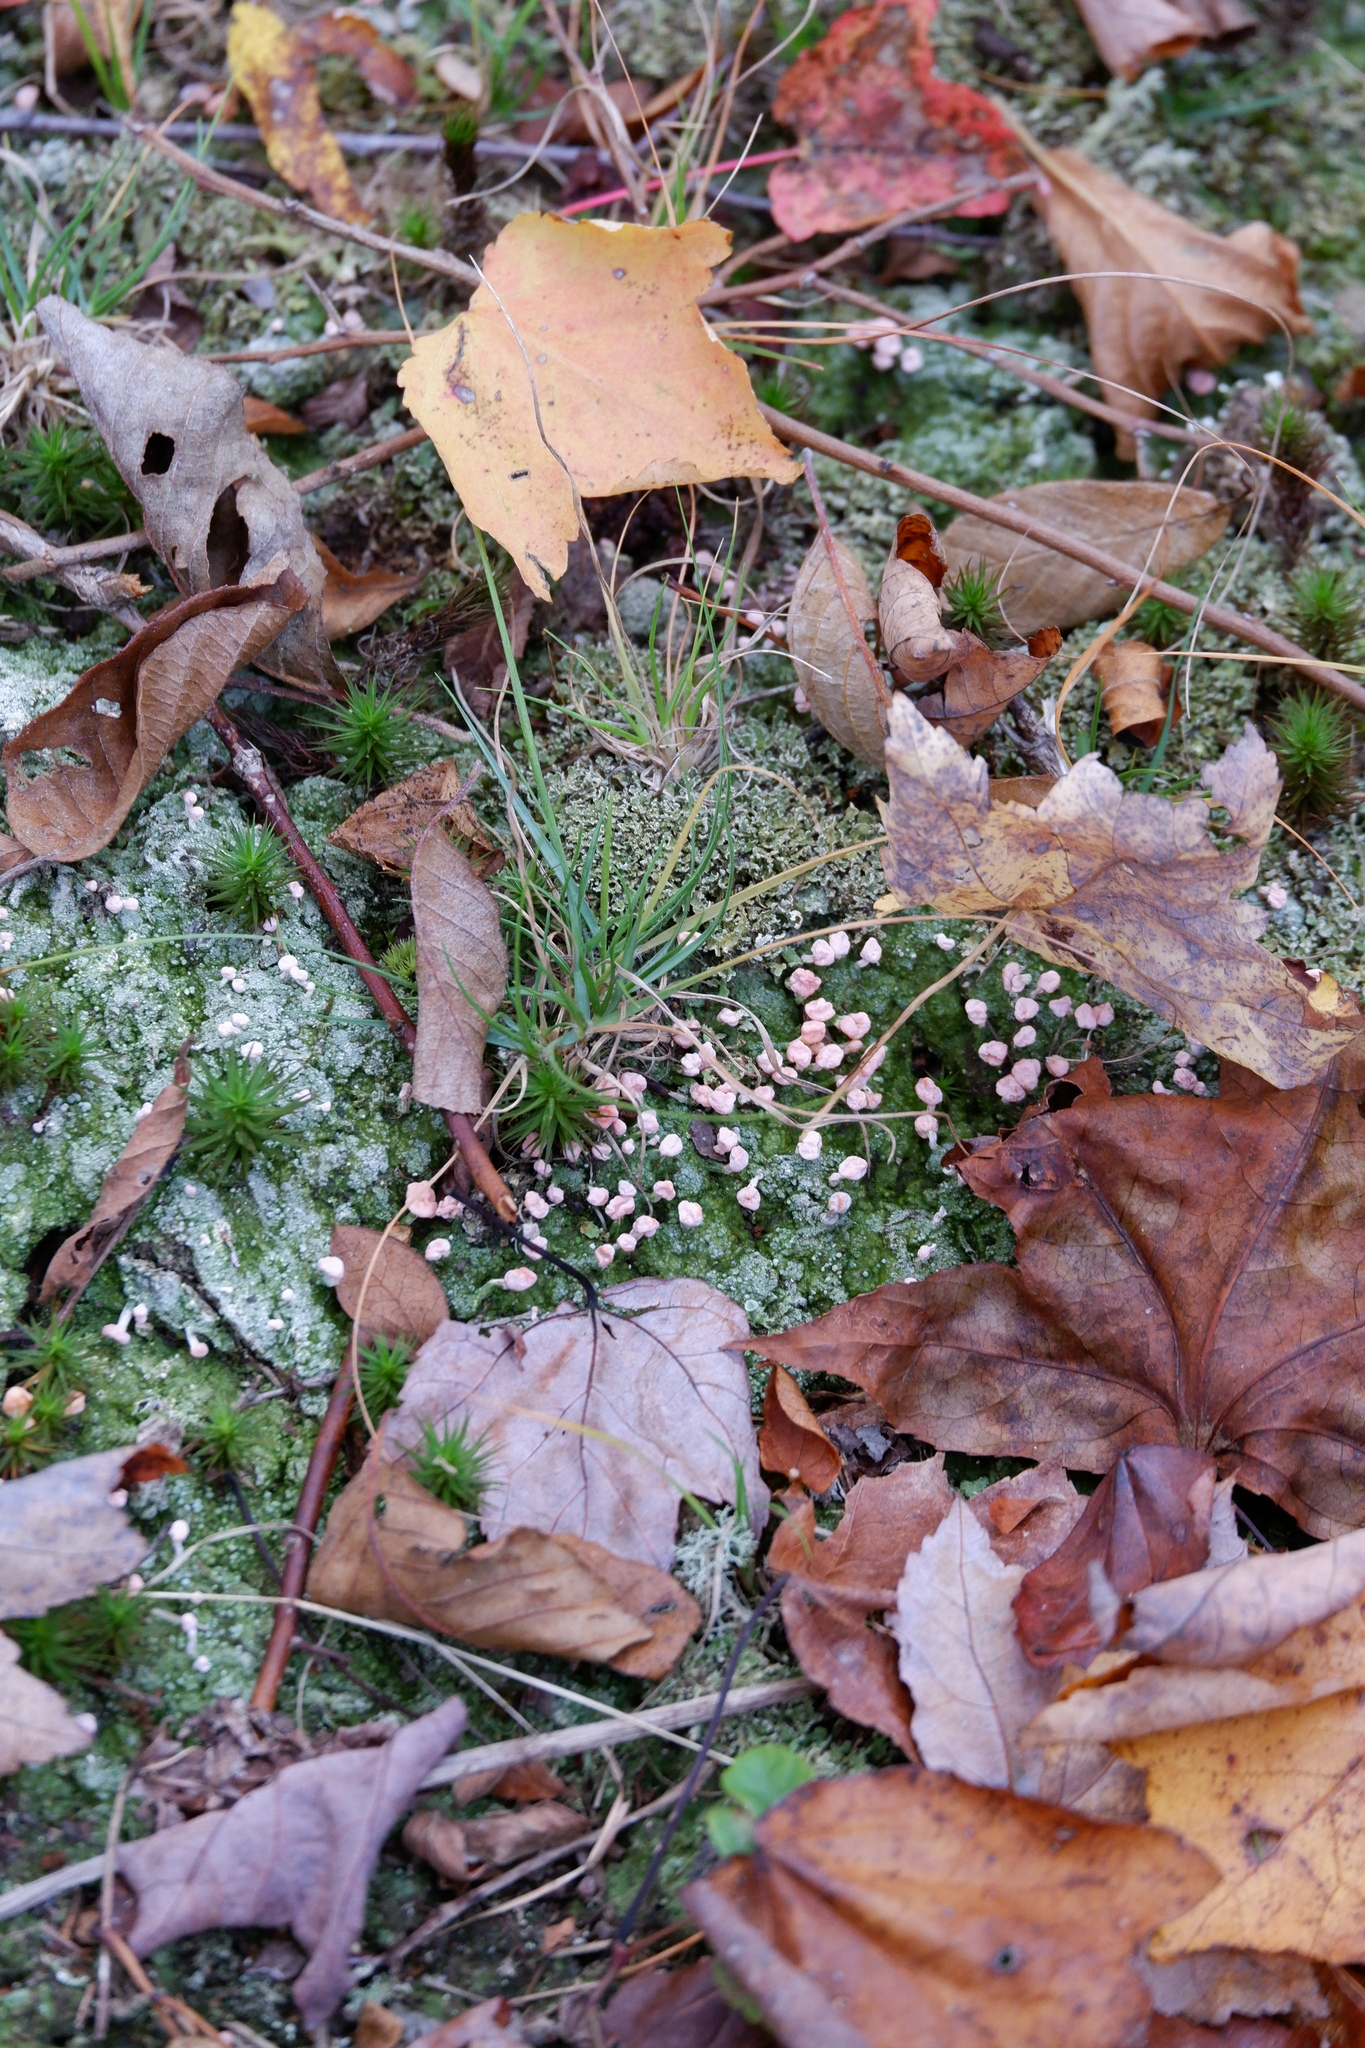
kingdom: Fungi
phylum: Ascomycota
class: Lecanoromycetes
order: Pertusariales
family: Icmadophilaceae
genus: Dibaeis
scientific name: Dibaeis baeomyces
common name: Pink earth lichen
